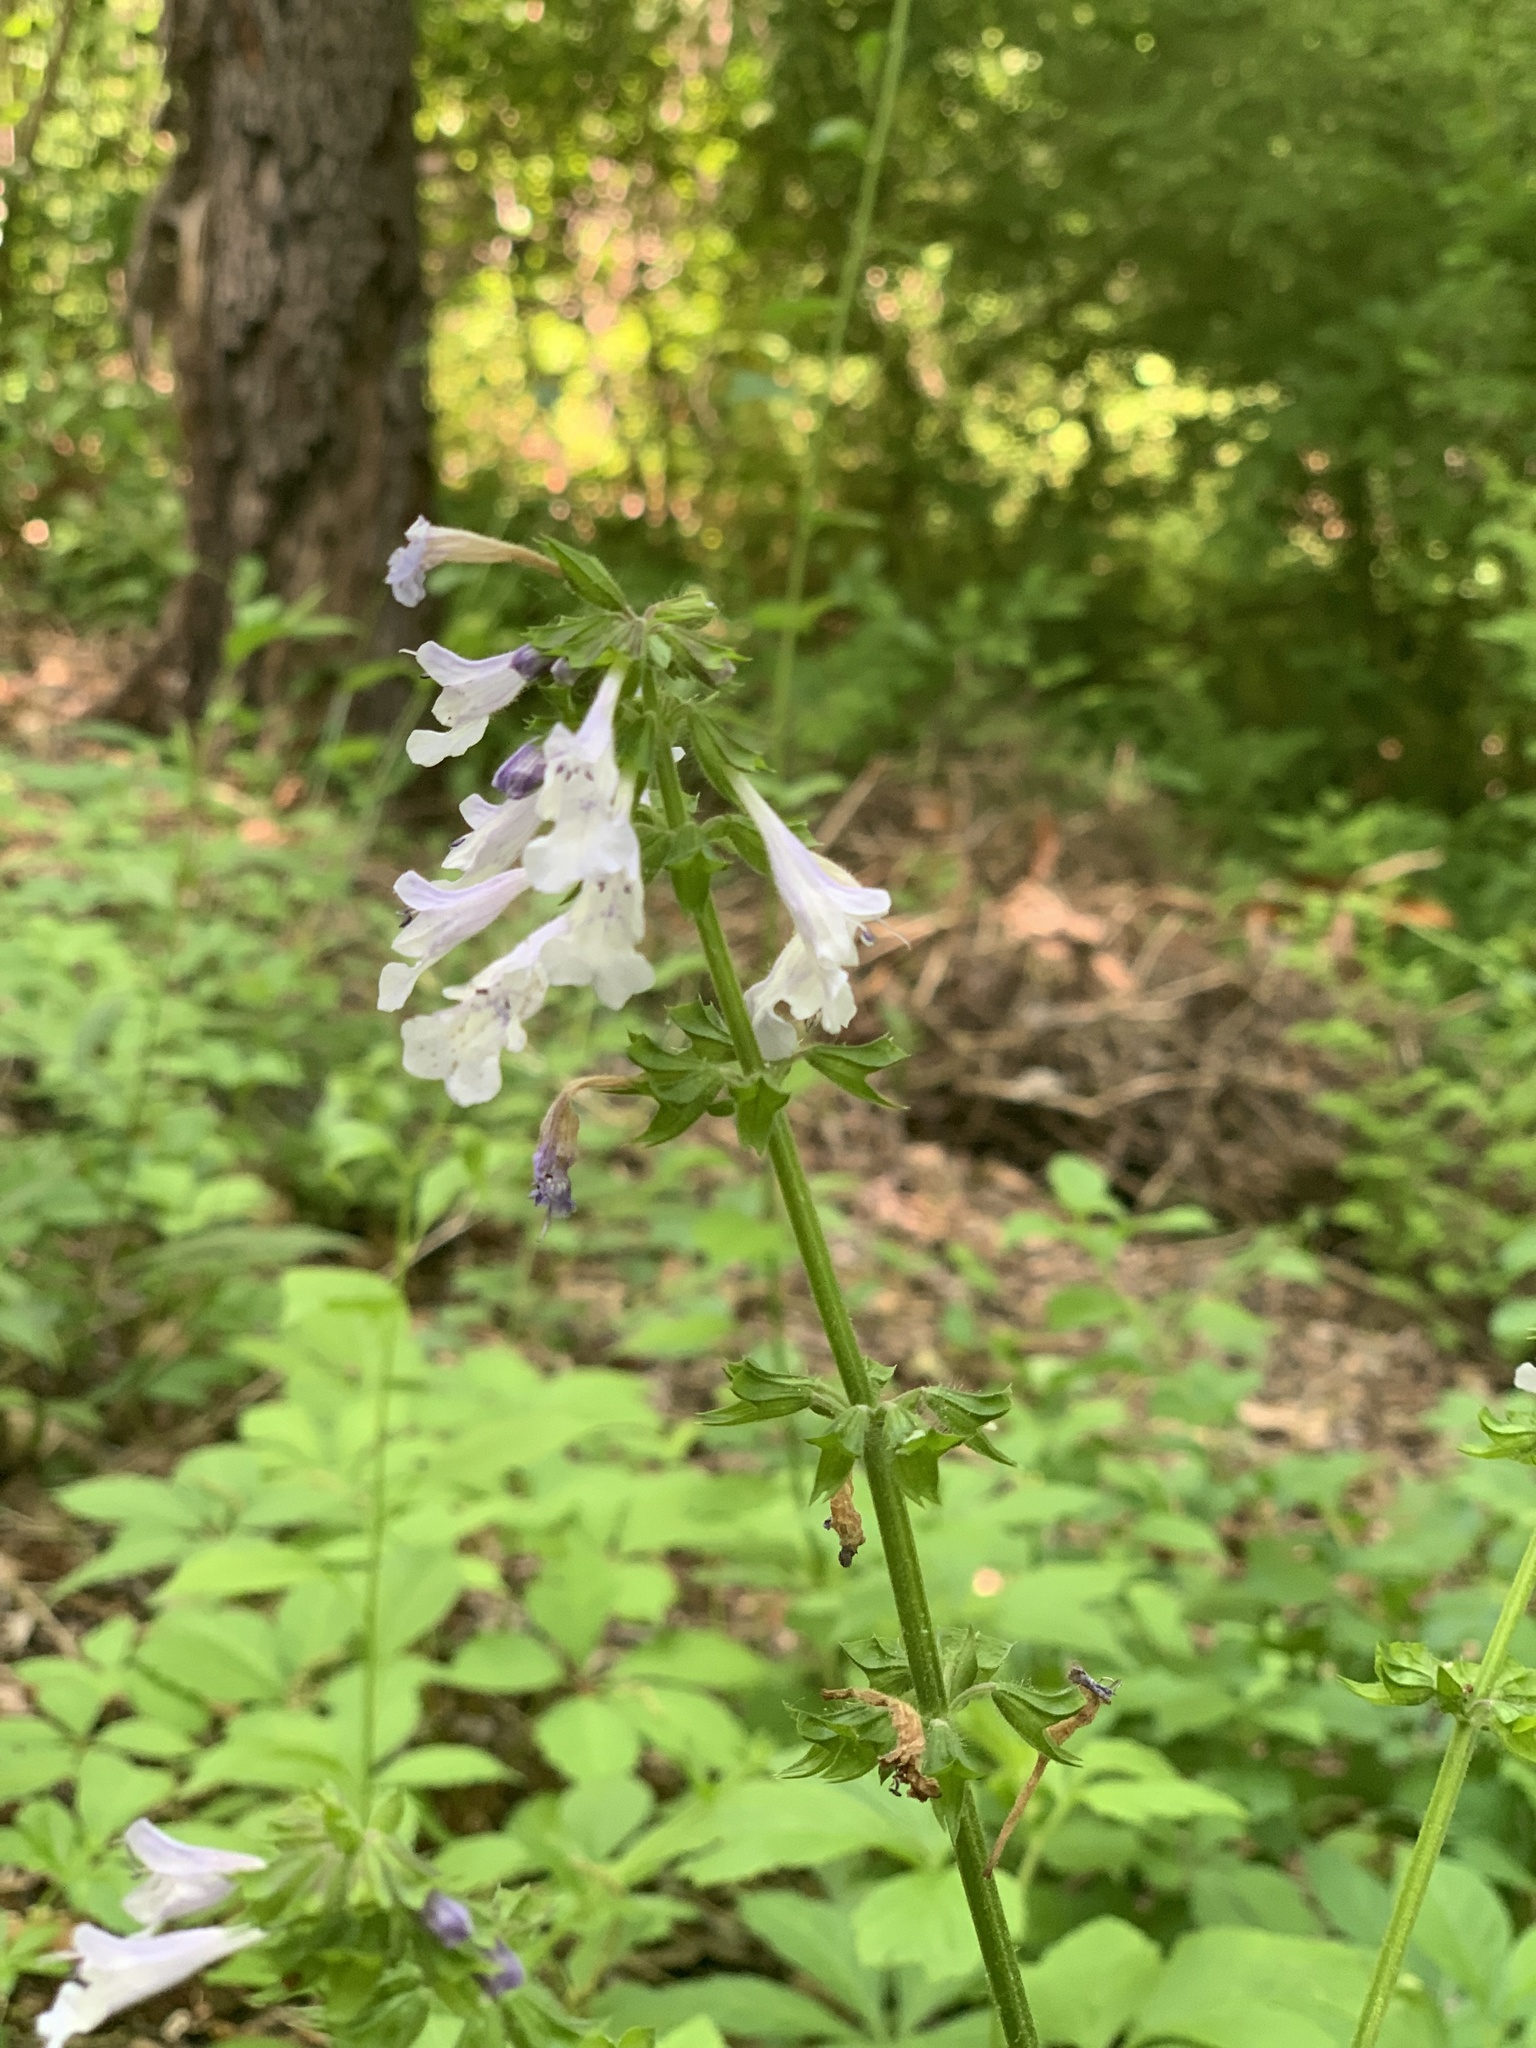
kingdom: Plantae
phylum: Tracheophyta
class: Magnoliopsida
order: Lamiales
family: Lamiaceae
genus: Salvia
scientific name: Salvia lyrata
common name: Cancerweed
